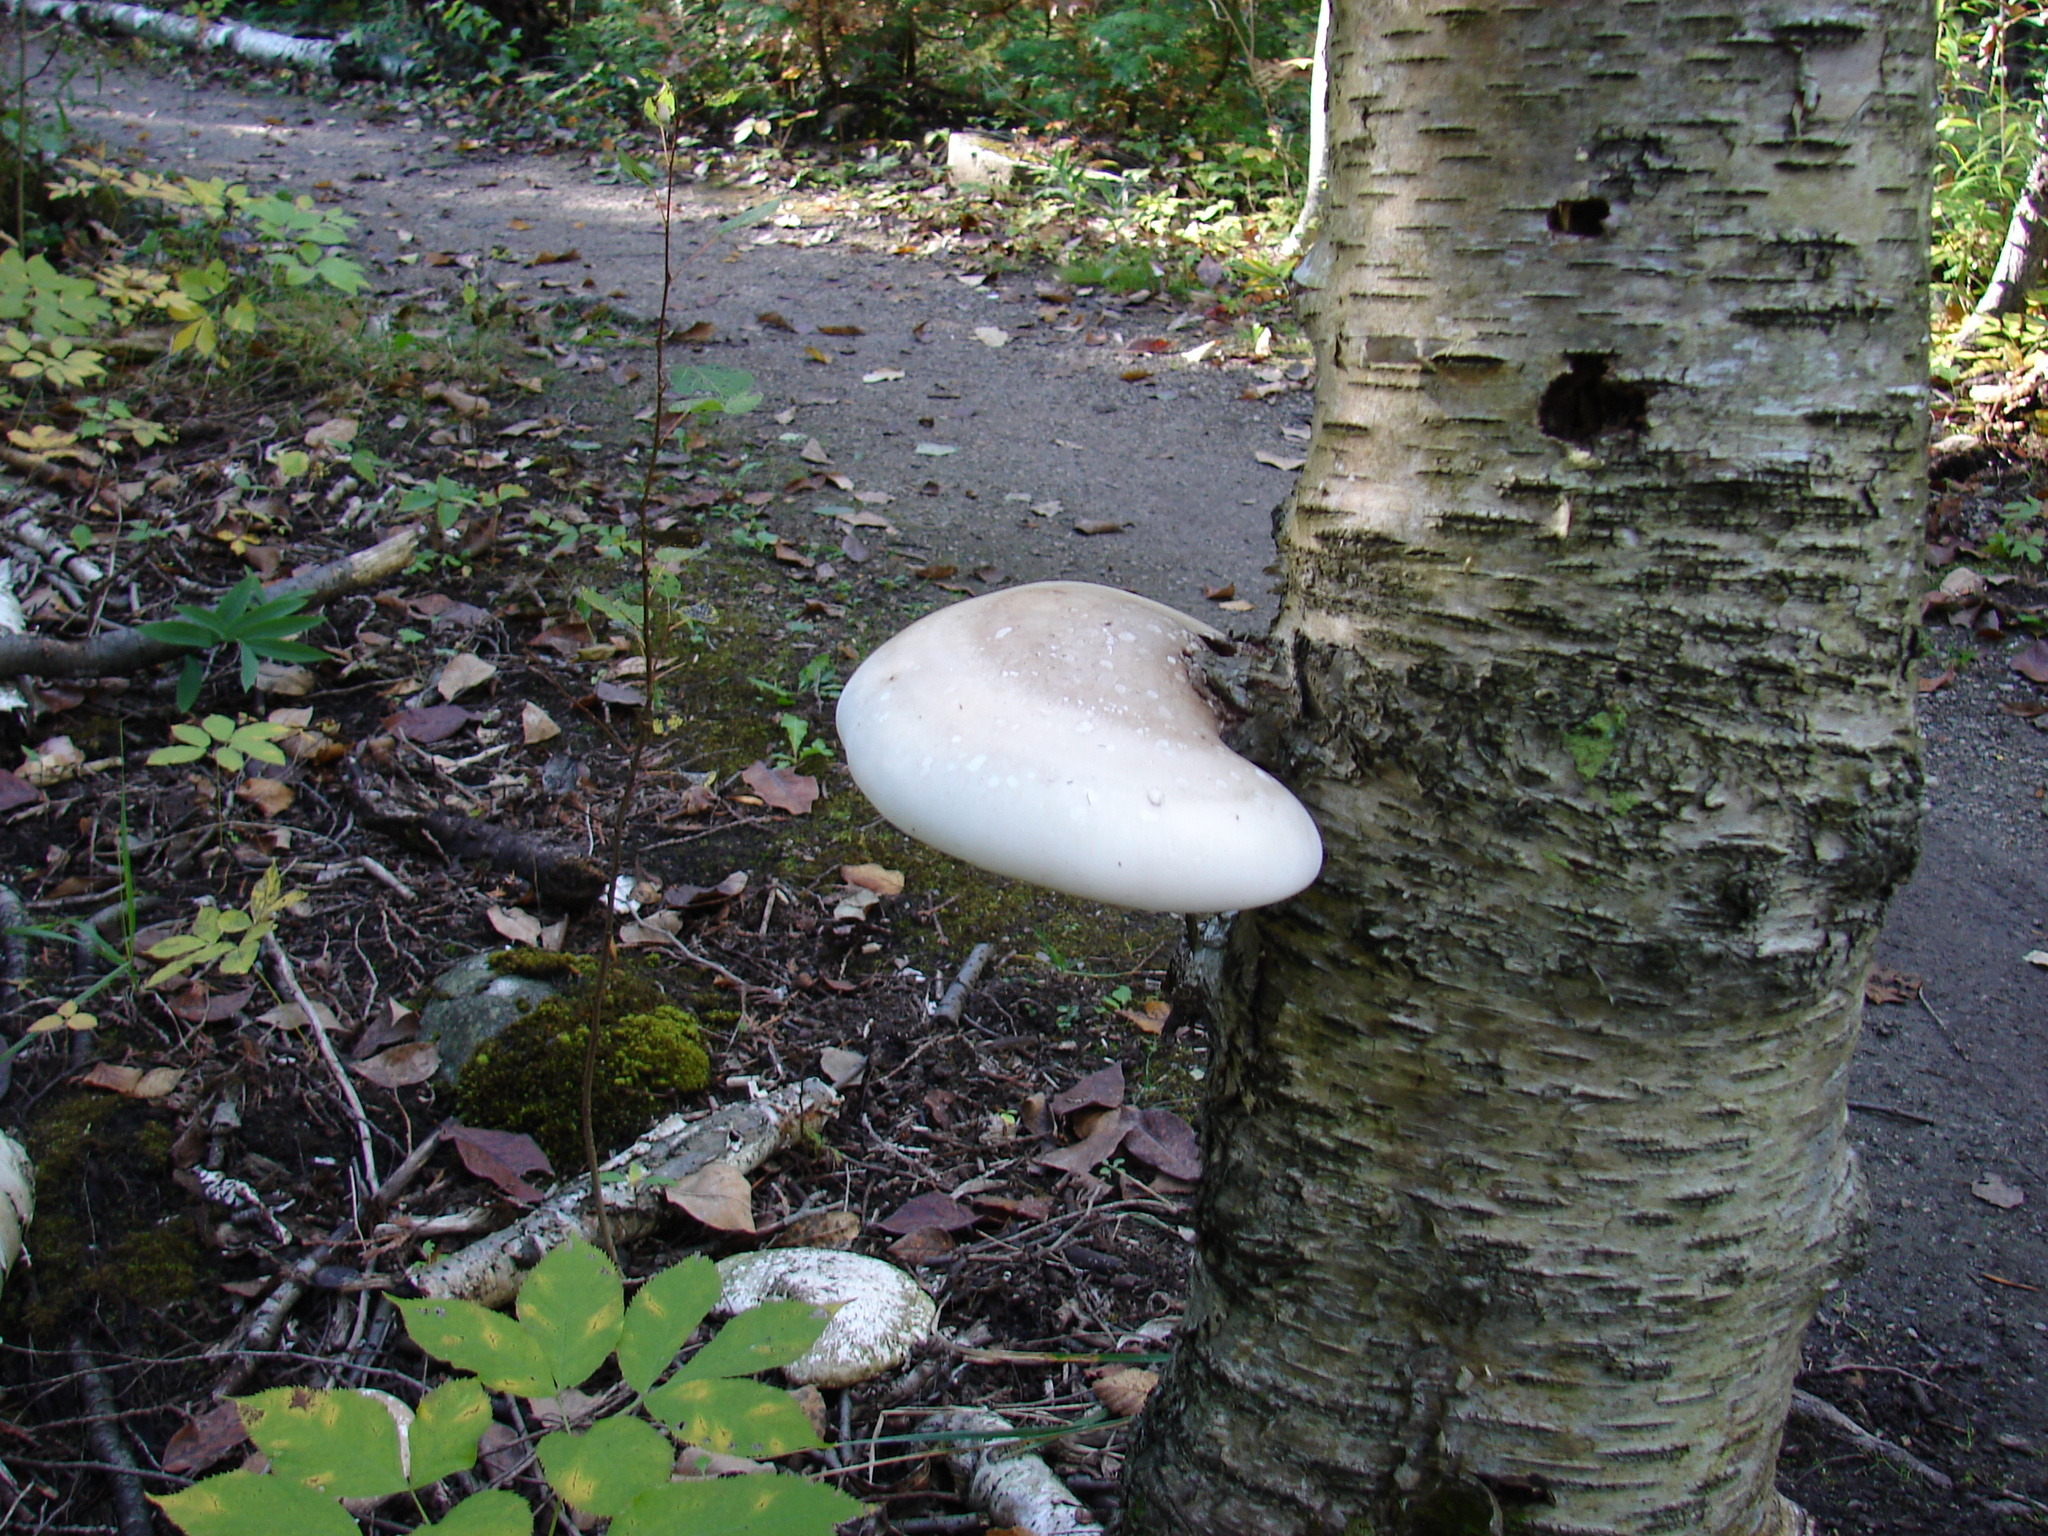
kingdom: Fungi
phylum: Basidiomycota
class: Agaricomycetes
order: Polyporales
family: Fomitopsidaceae
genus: Fomitopsis
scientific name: Fomitopsis betulina
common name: Birch polypore
